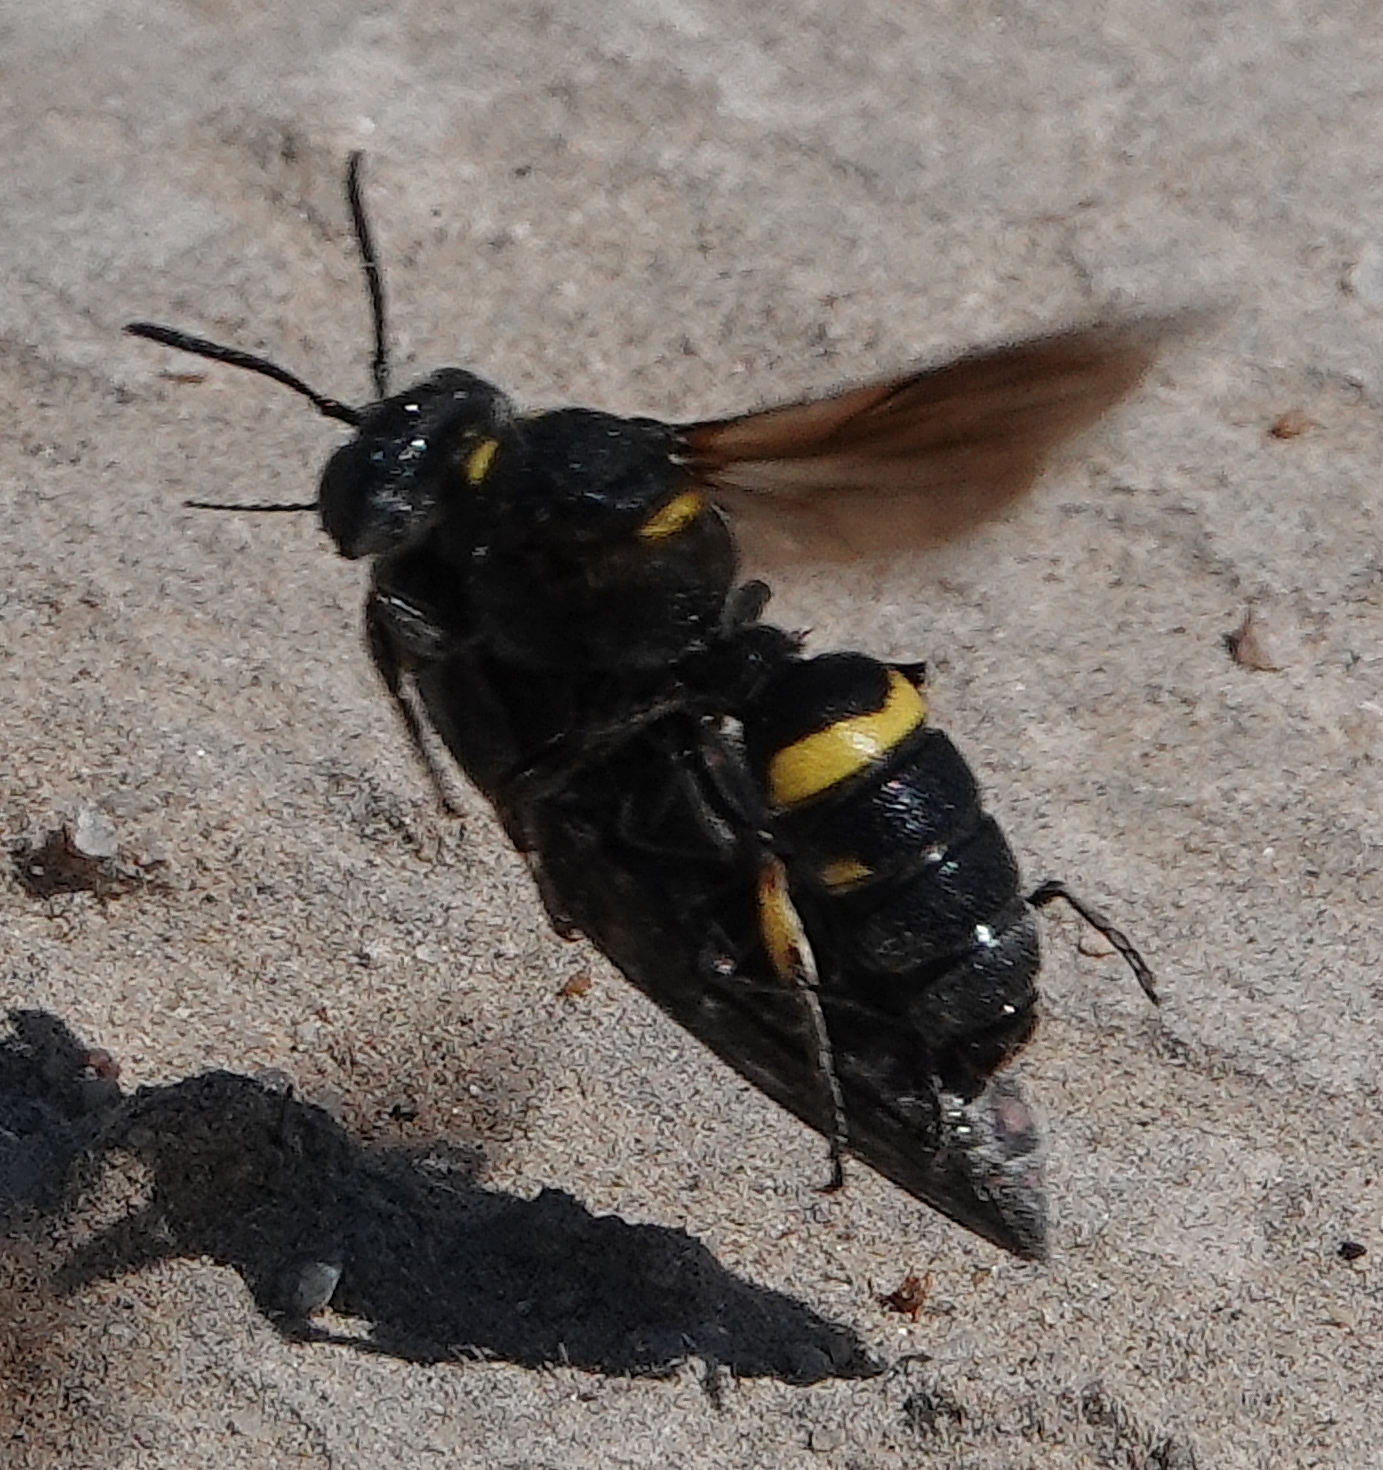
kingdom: Animalia
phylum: Arthropoda
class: Insecta
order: Hymenoptera
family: Crabronidae
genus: Cerceris
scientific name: Cerceris fumipennis
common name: Smokey-winged beetle bandit wasp
